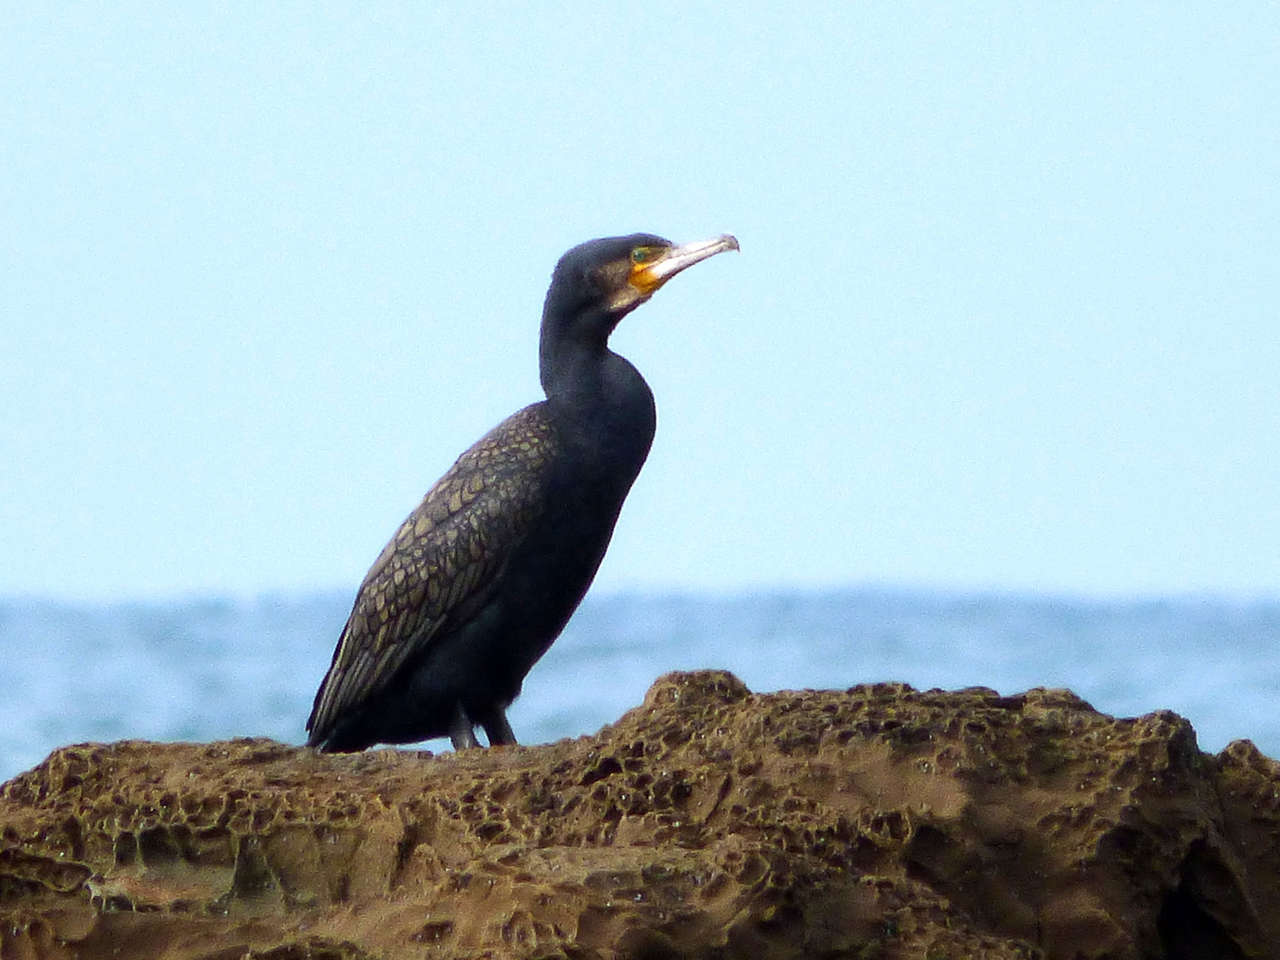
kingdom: Animalia
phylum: Chordata
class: Aves
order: Suliformes
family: Phalacrocoracidae
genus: Phalacrocorax
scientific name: Phalacrocorax carbo
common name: Great cormorant
